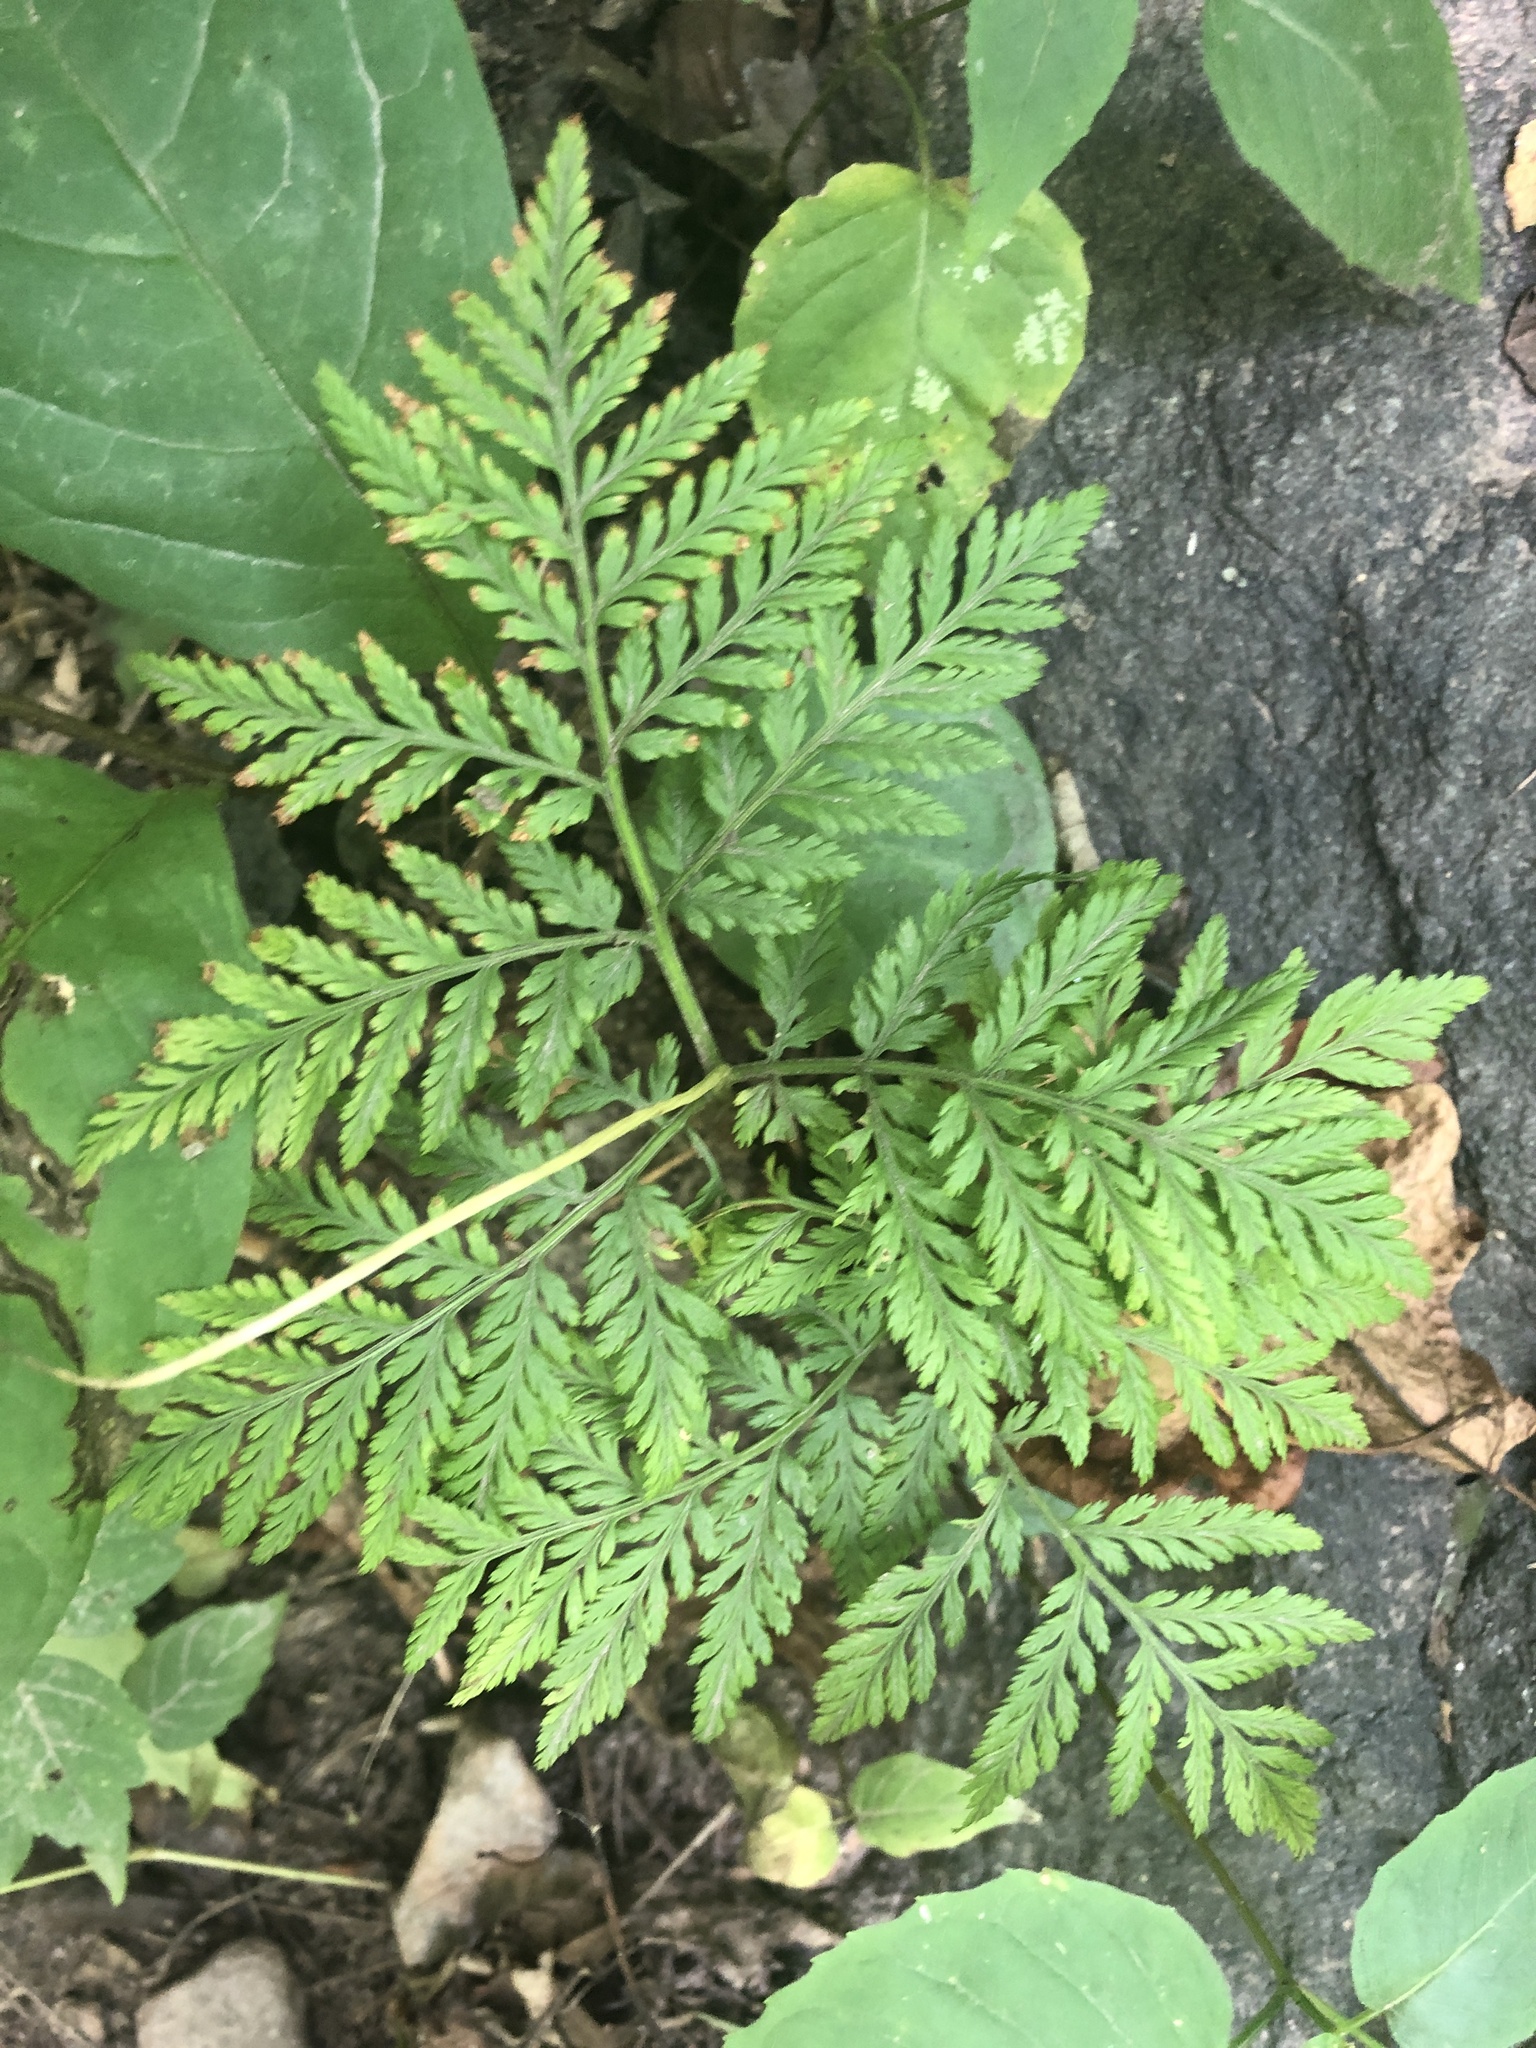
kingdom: Plantae
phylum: Tracheophyta
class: Polypodiopsida
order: Ophioglossales
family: Ophioglossaceae
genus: Botrypus
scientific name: Botrypus virginianus
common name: Common grapefern
